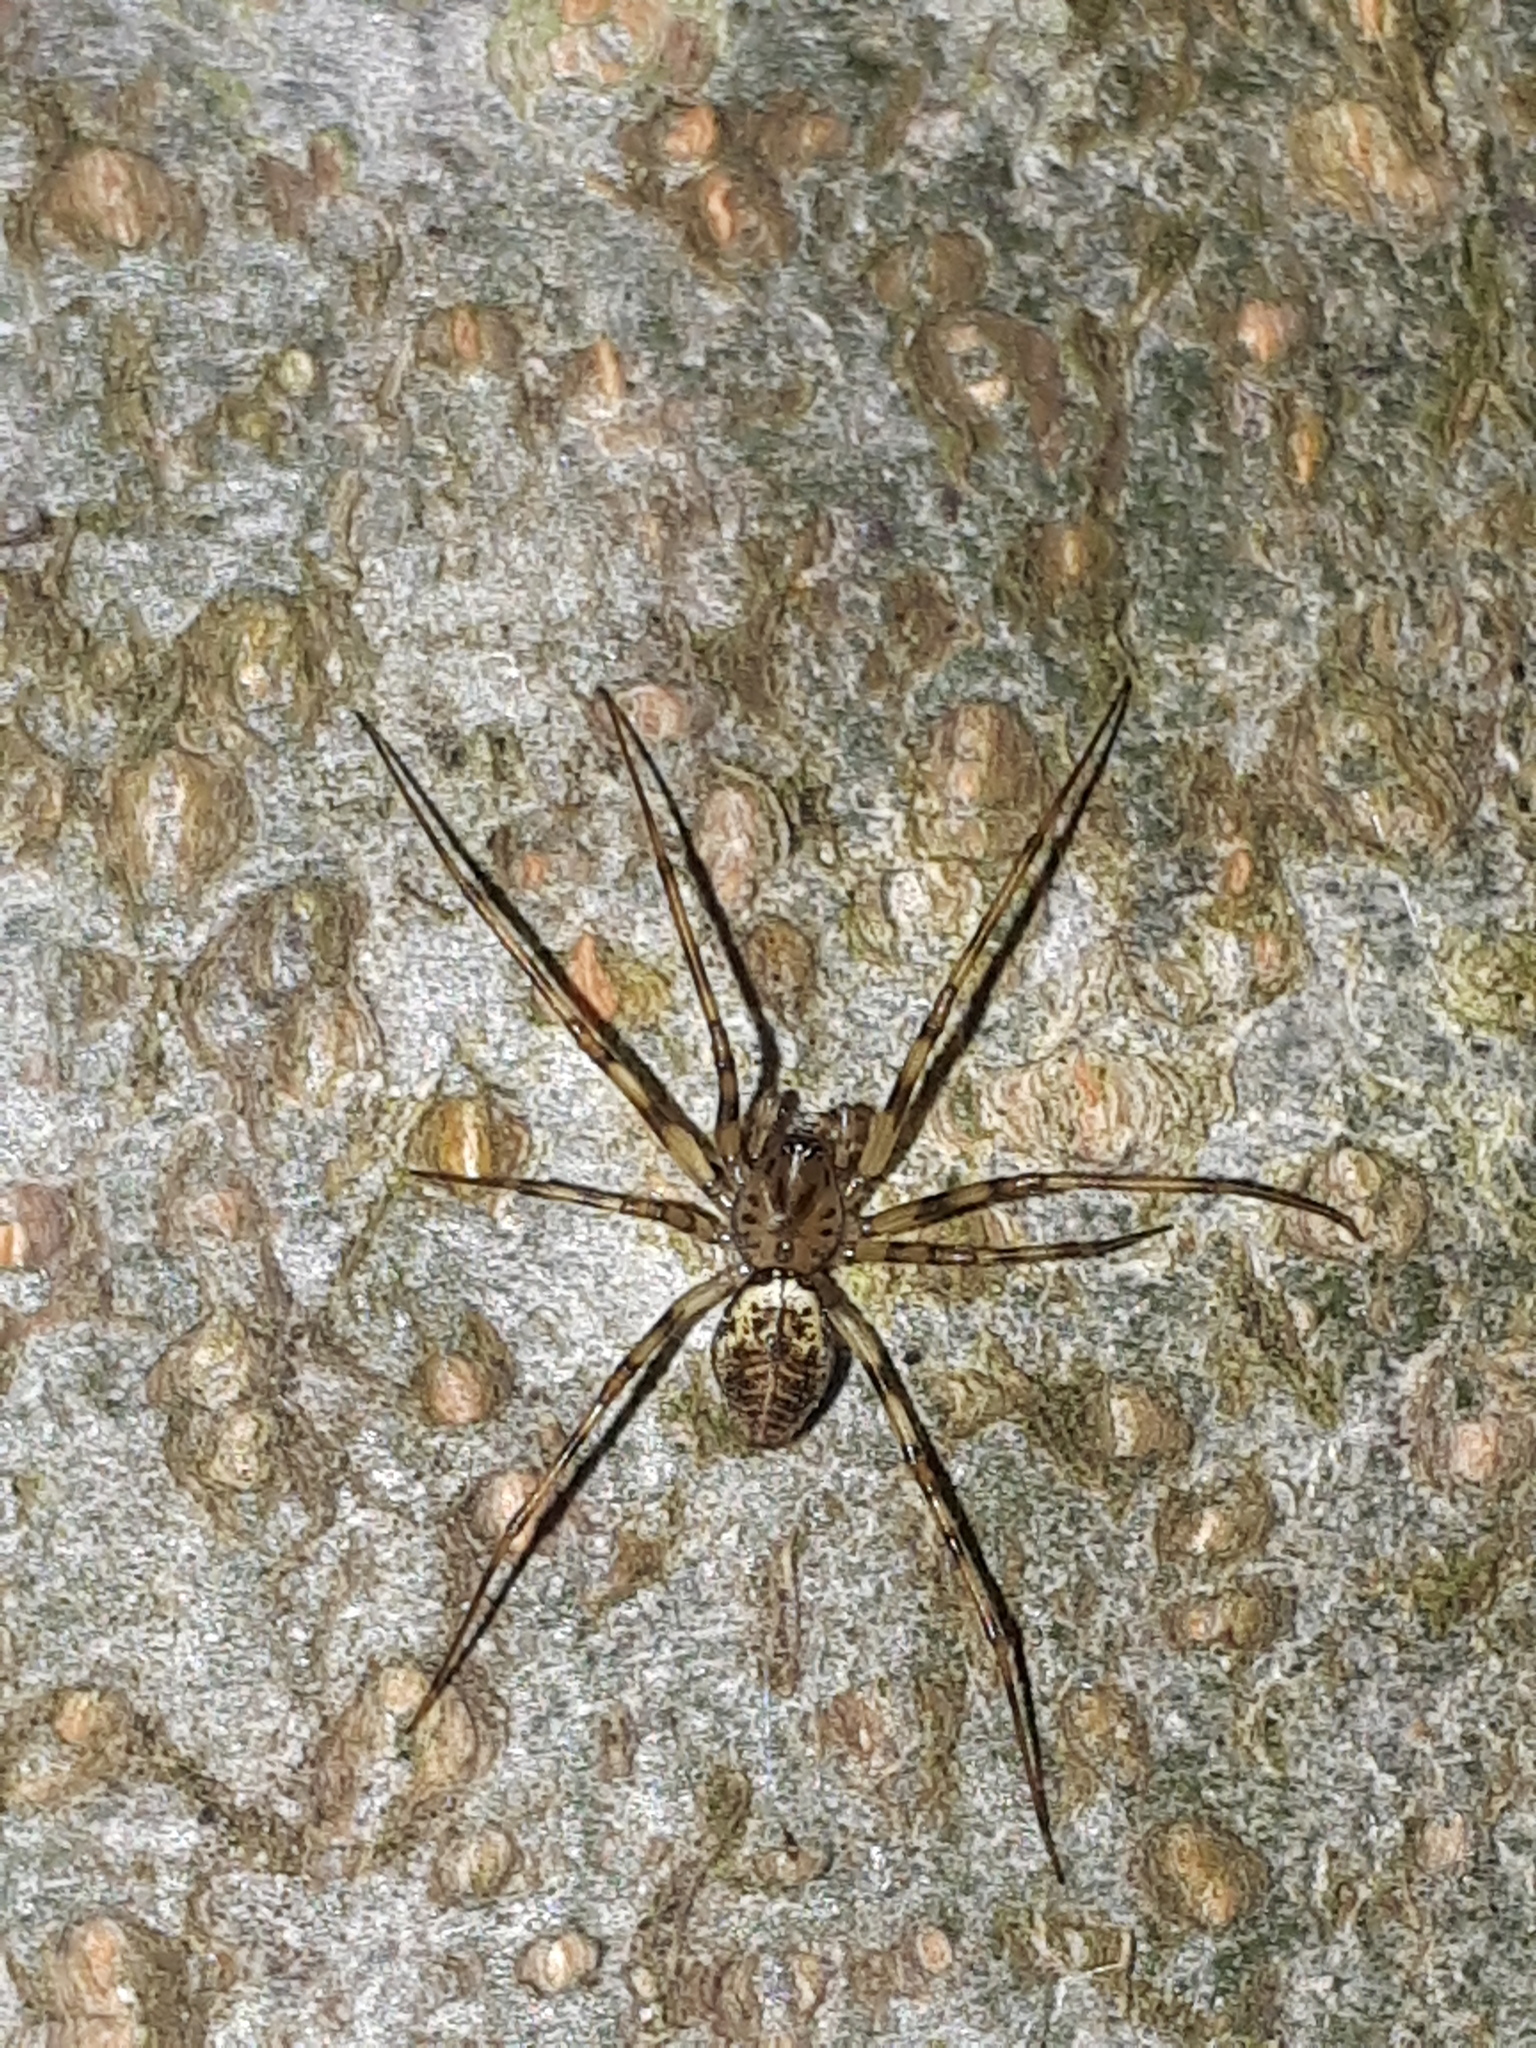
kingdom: Animalia
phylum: Arthropoda
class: Arachnida
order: Araneae
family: Linyphiidae
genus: Drapetisca
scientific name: Drapetisca socialis
